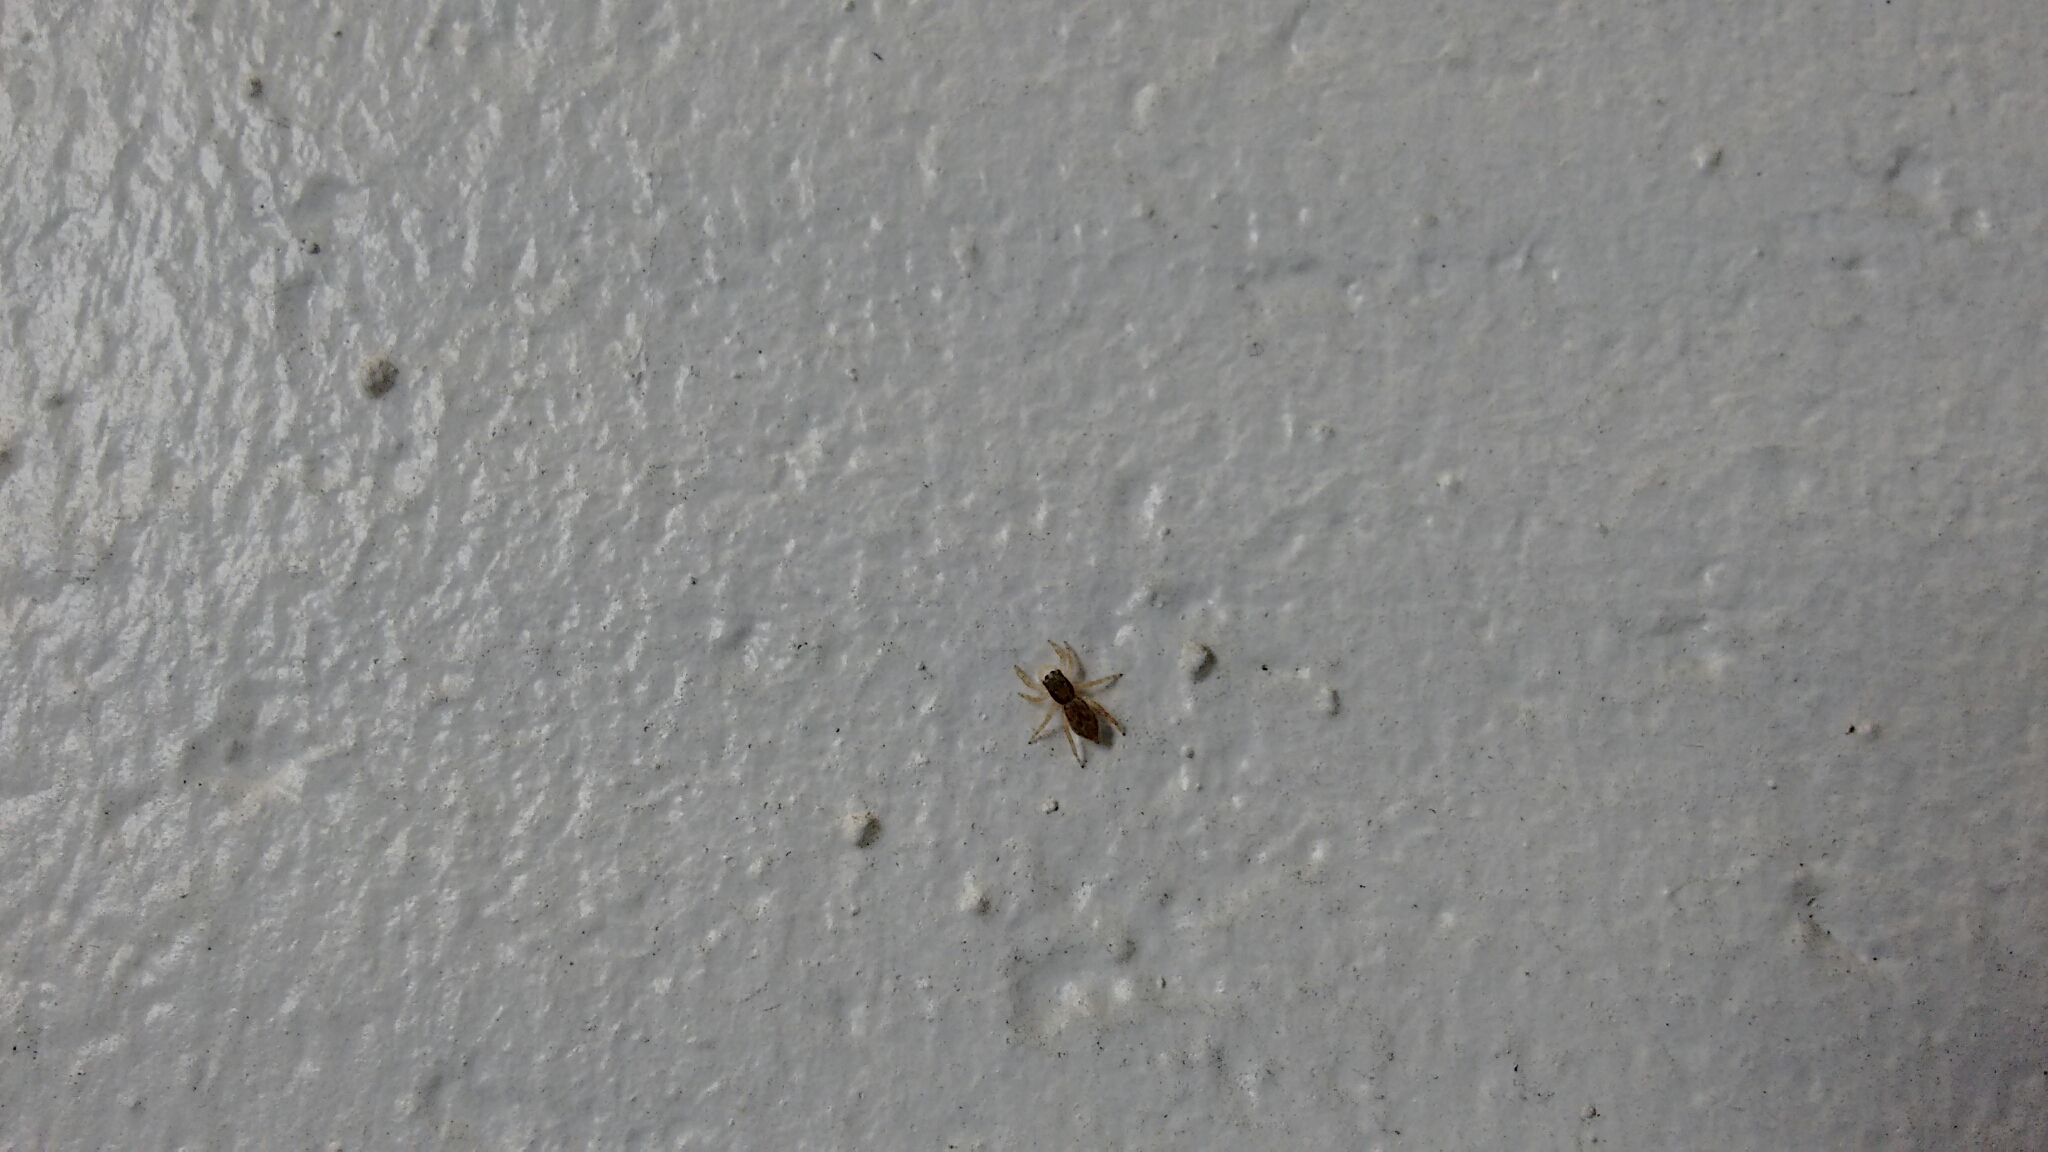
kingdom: Animalia
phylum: Arthropoda
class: Arachnida
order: Araneae
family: Salticidae
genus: Menemerus
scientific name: Menemerus bivittatus
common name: Gray wall jumper
